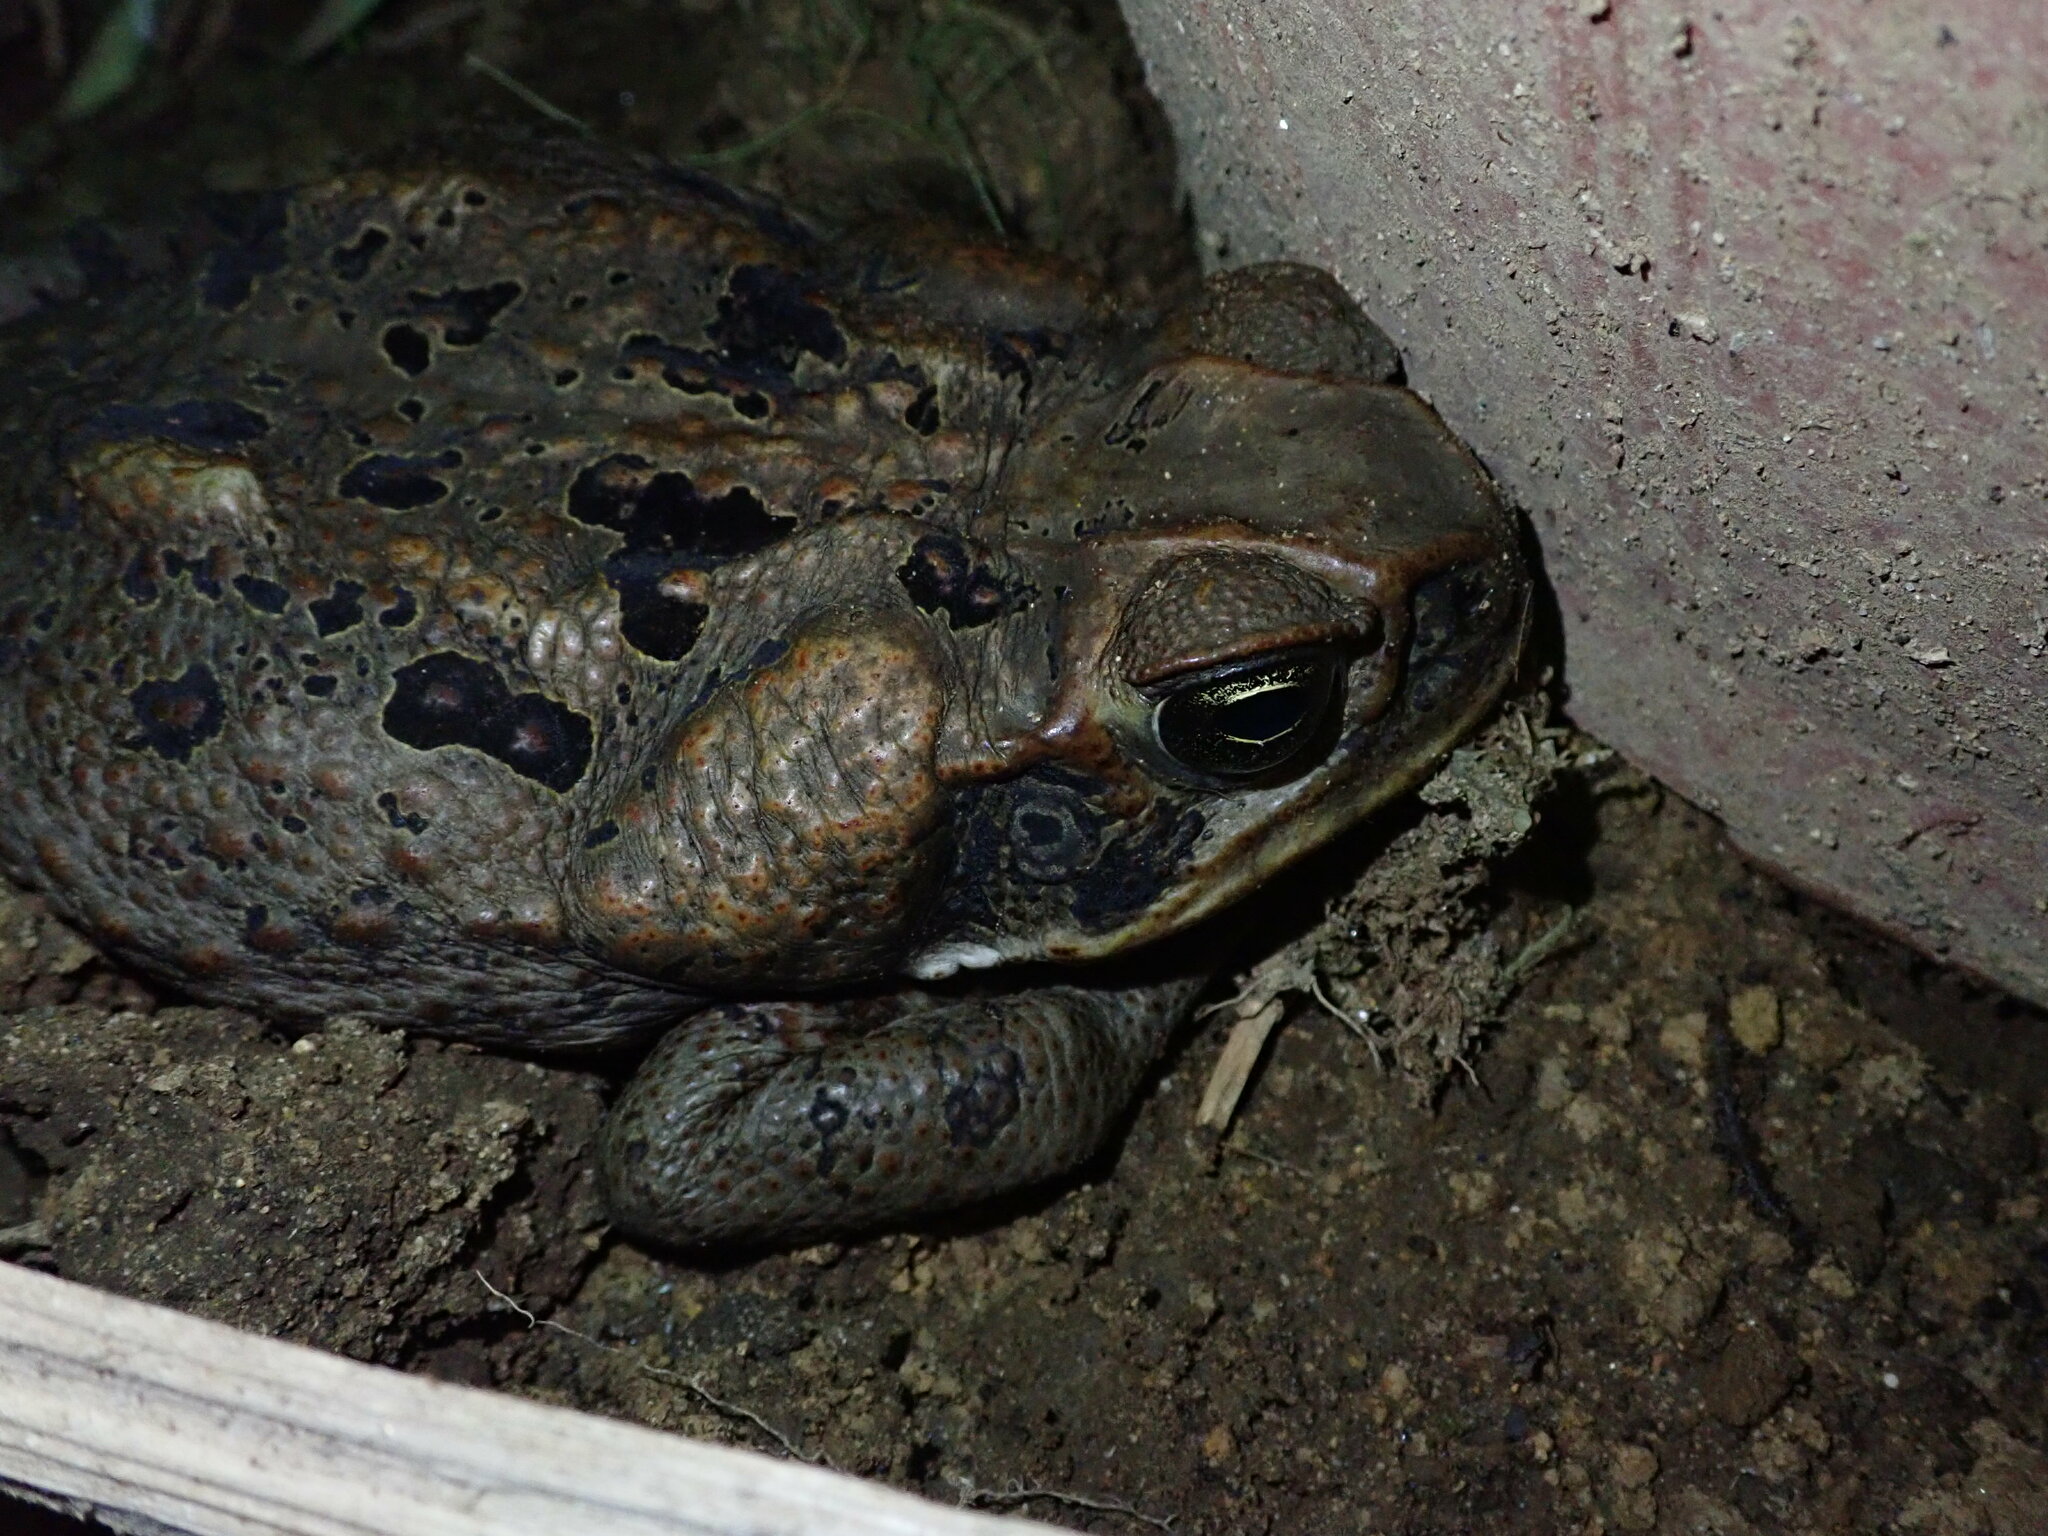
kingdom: Animalia
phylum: Chordata
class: Amphibia
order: Anura
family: Bufonidae
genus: Rhinella
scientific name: Rhinella marina
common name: Cane toad
